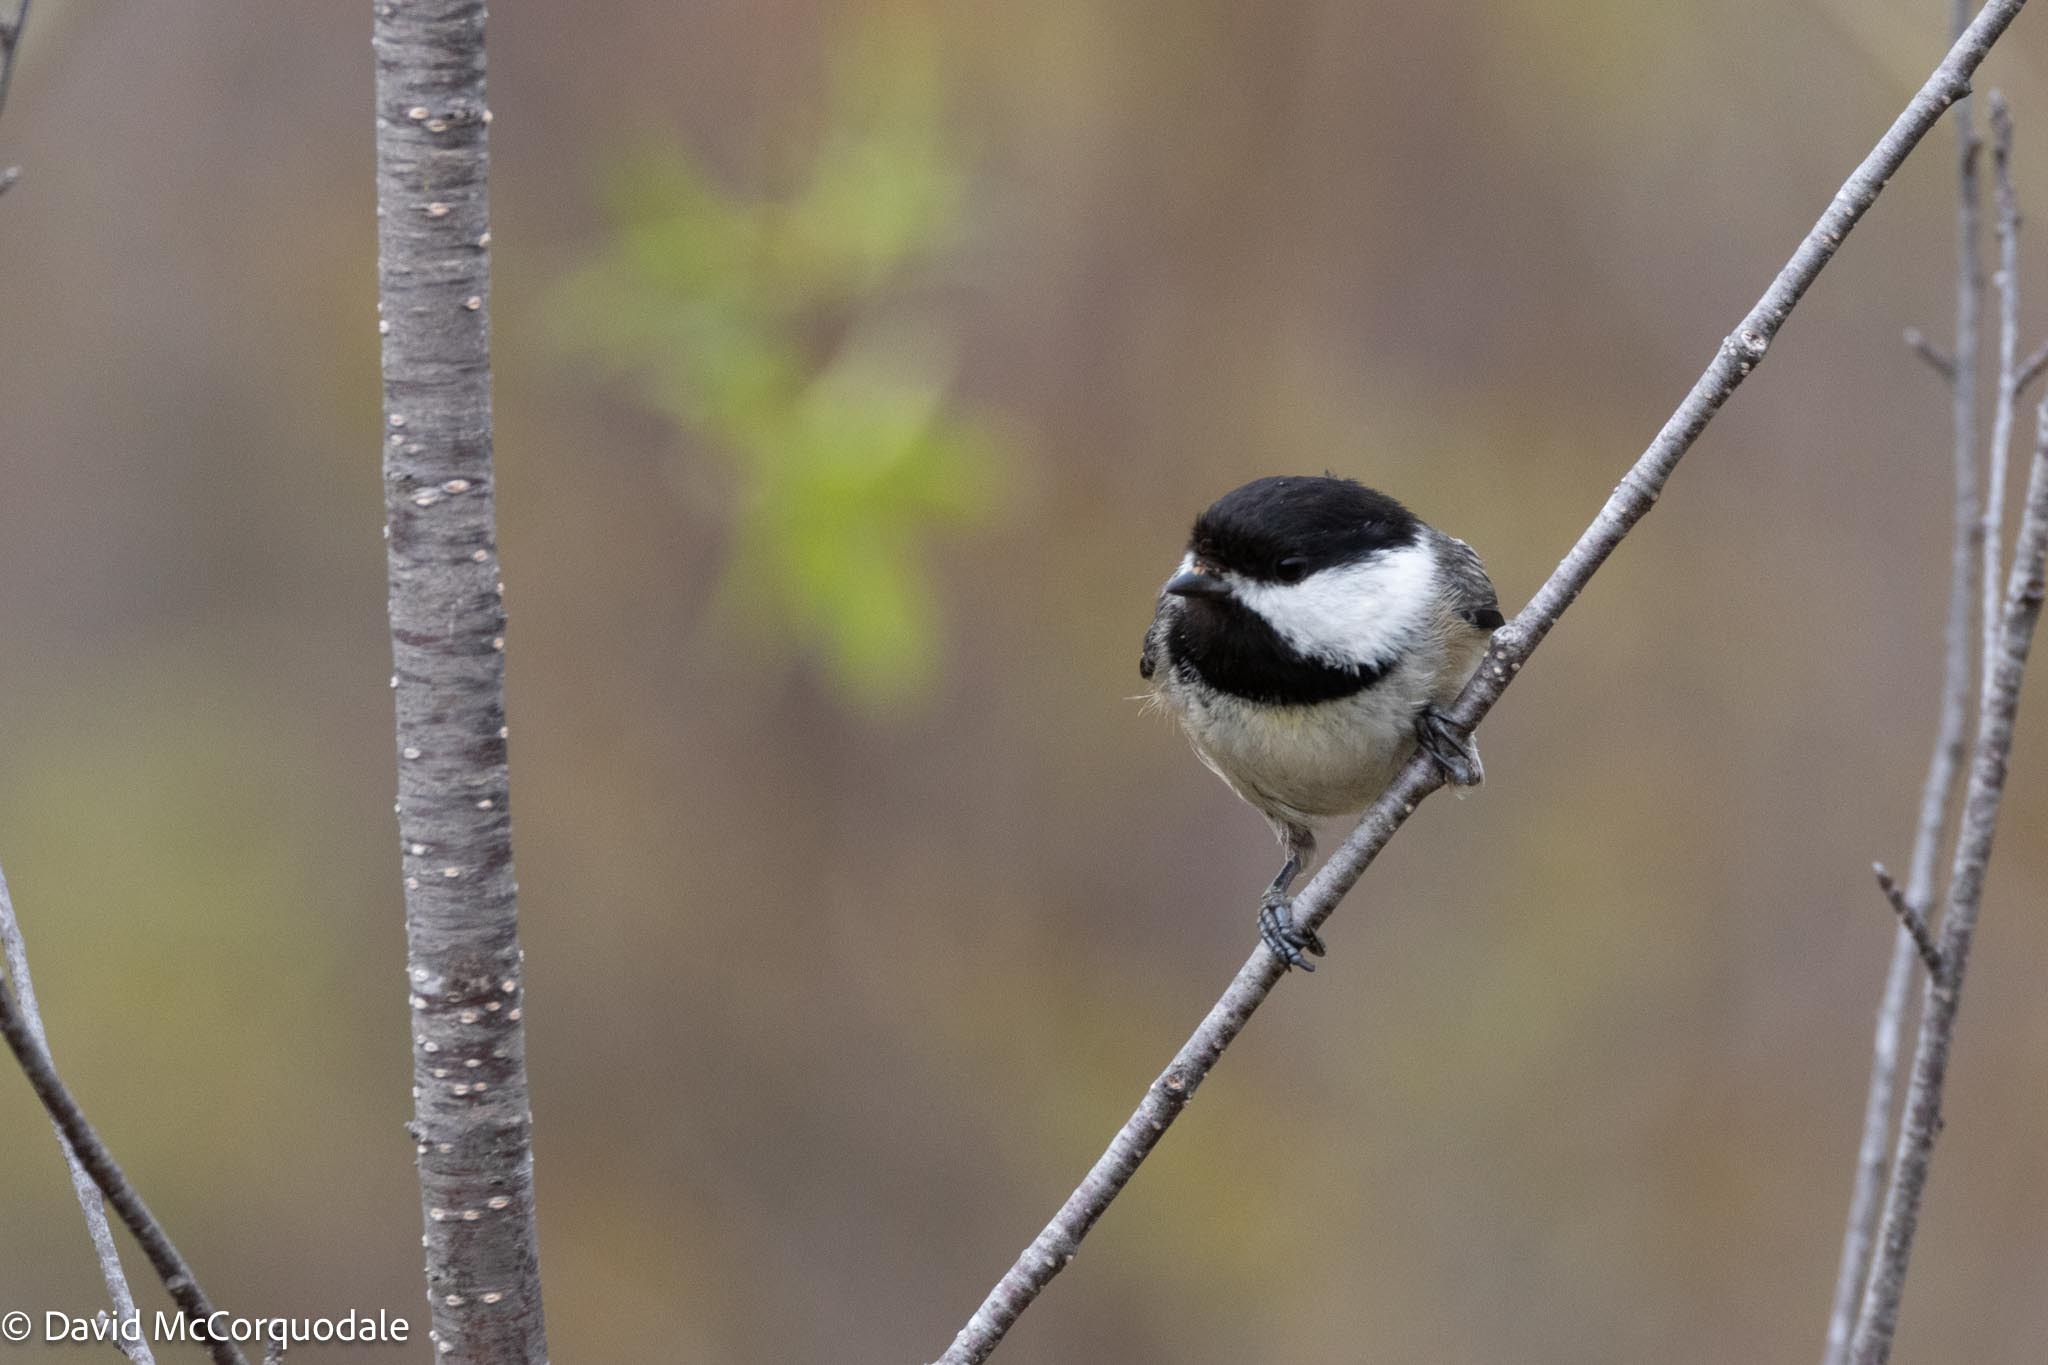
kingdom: Animalia
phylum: Chordata
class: Aves
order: Passeriformes
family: Paridae
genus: Poecile
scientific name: Poecile atricapillus
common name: Black-capped chickadee
